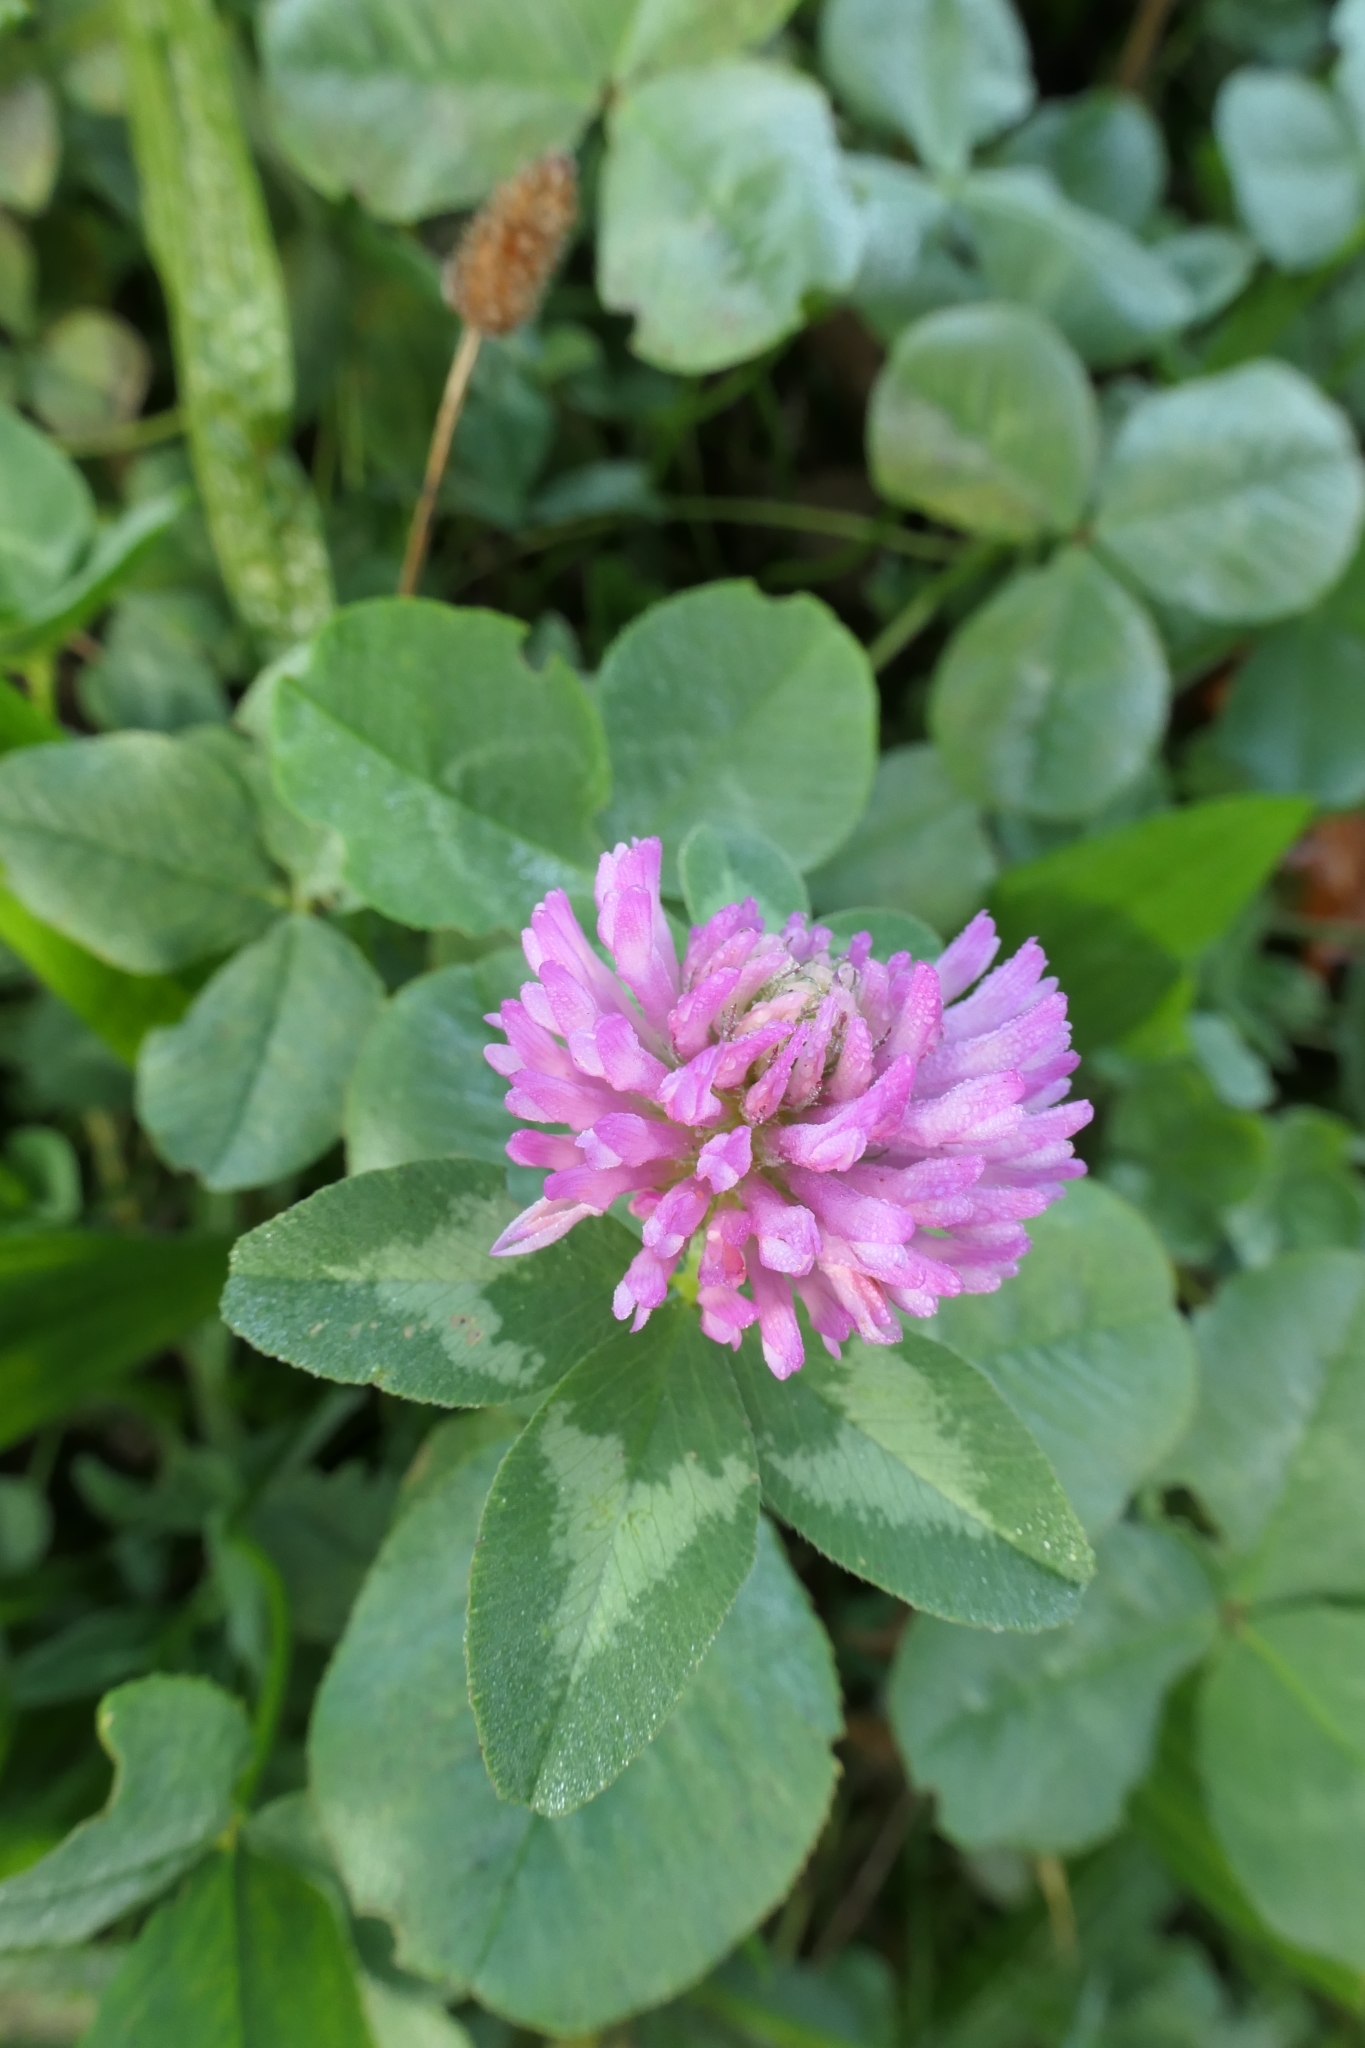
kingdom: Plantae
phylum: Tracheophyta
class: Magnoliopsida
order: Fabales
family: Fabaceae
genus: Trifolium
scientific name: Trifolium pratense
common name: Red clover
